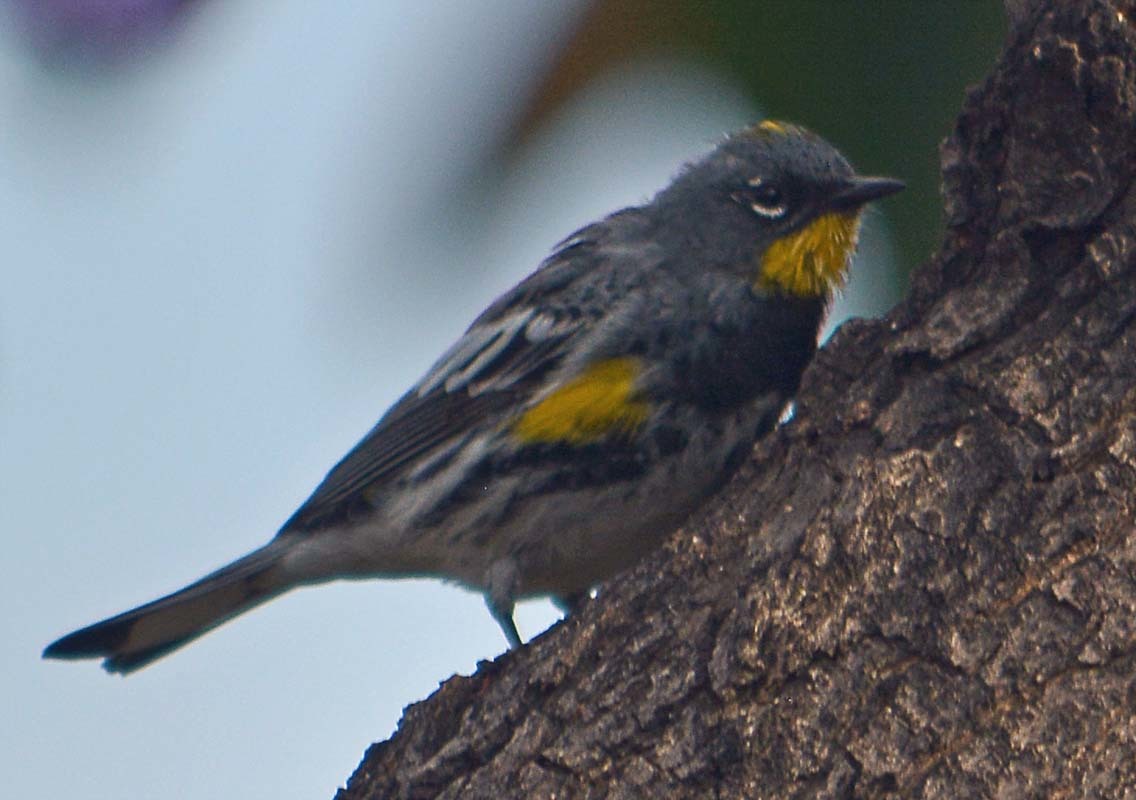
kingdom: Animalia
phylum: Chordata
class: Aves
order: Passeriformes
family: Parulidae
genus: Setophaga
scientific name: Setophaga auduboni
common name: Audubon's warbler
